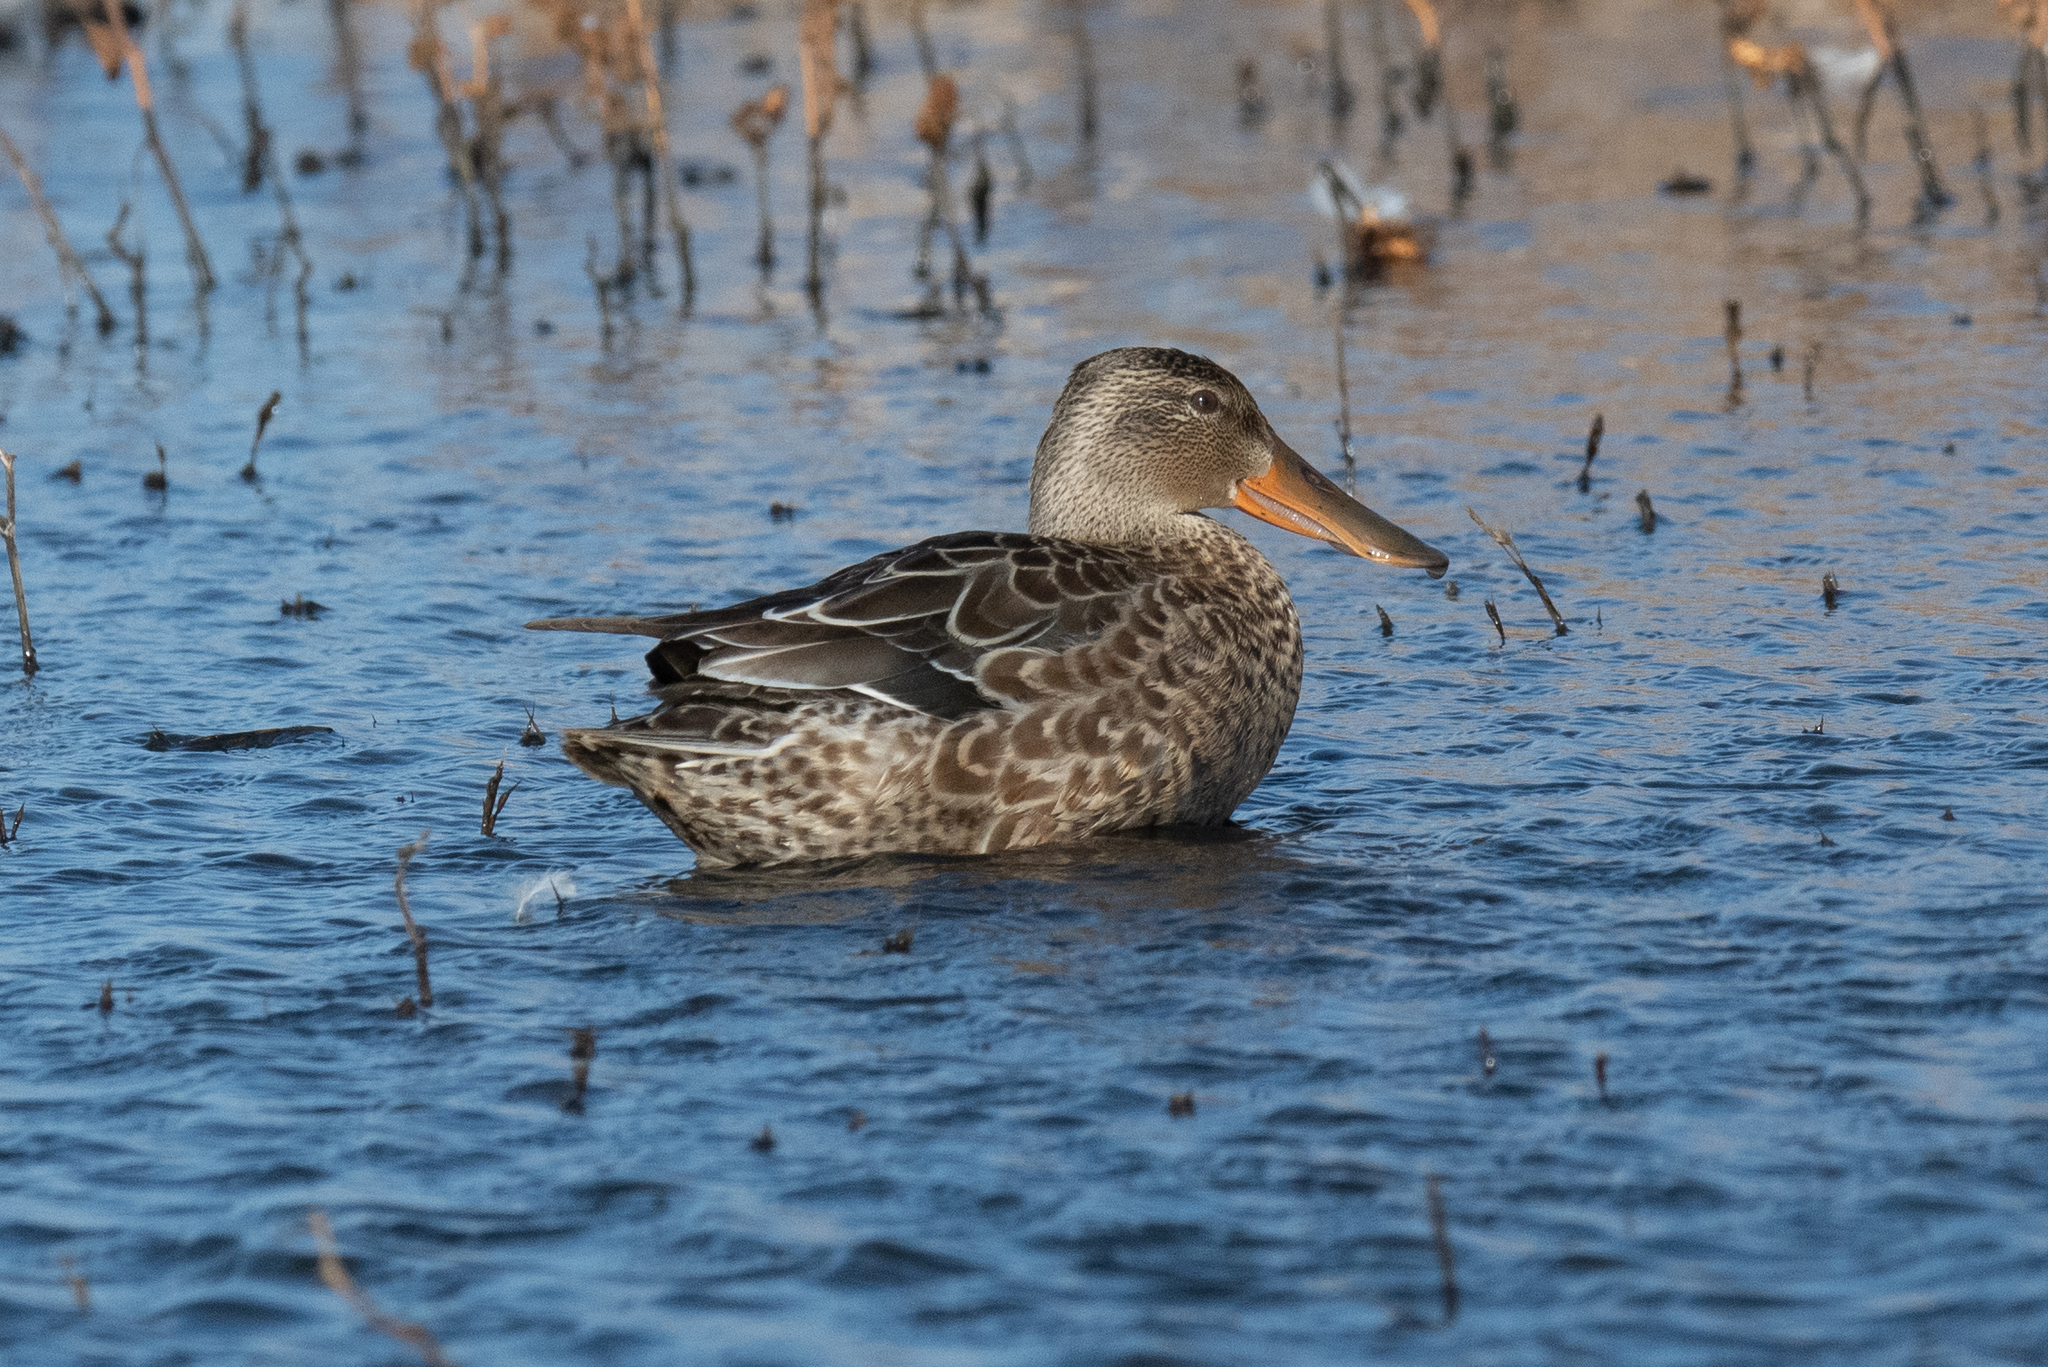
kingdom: Animalia
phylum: Chordata
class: Aves
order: Anseriformes
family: Anatidae
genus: Spatula
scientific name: Spatula clypeata
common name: Northern shoveler
